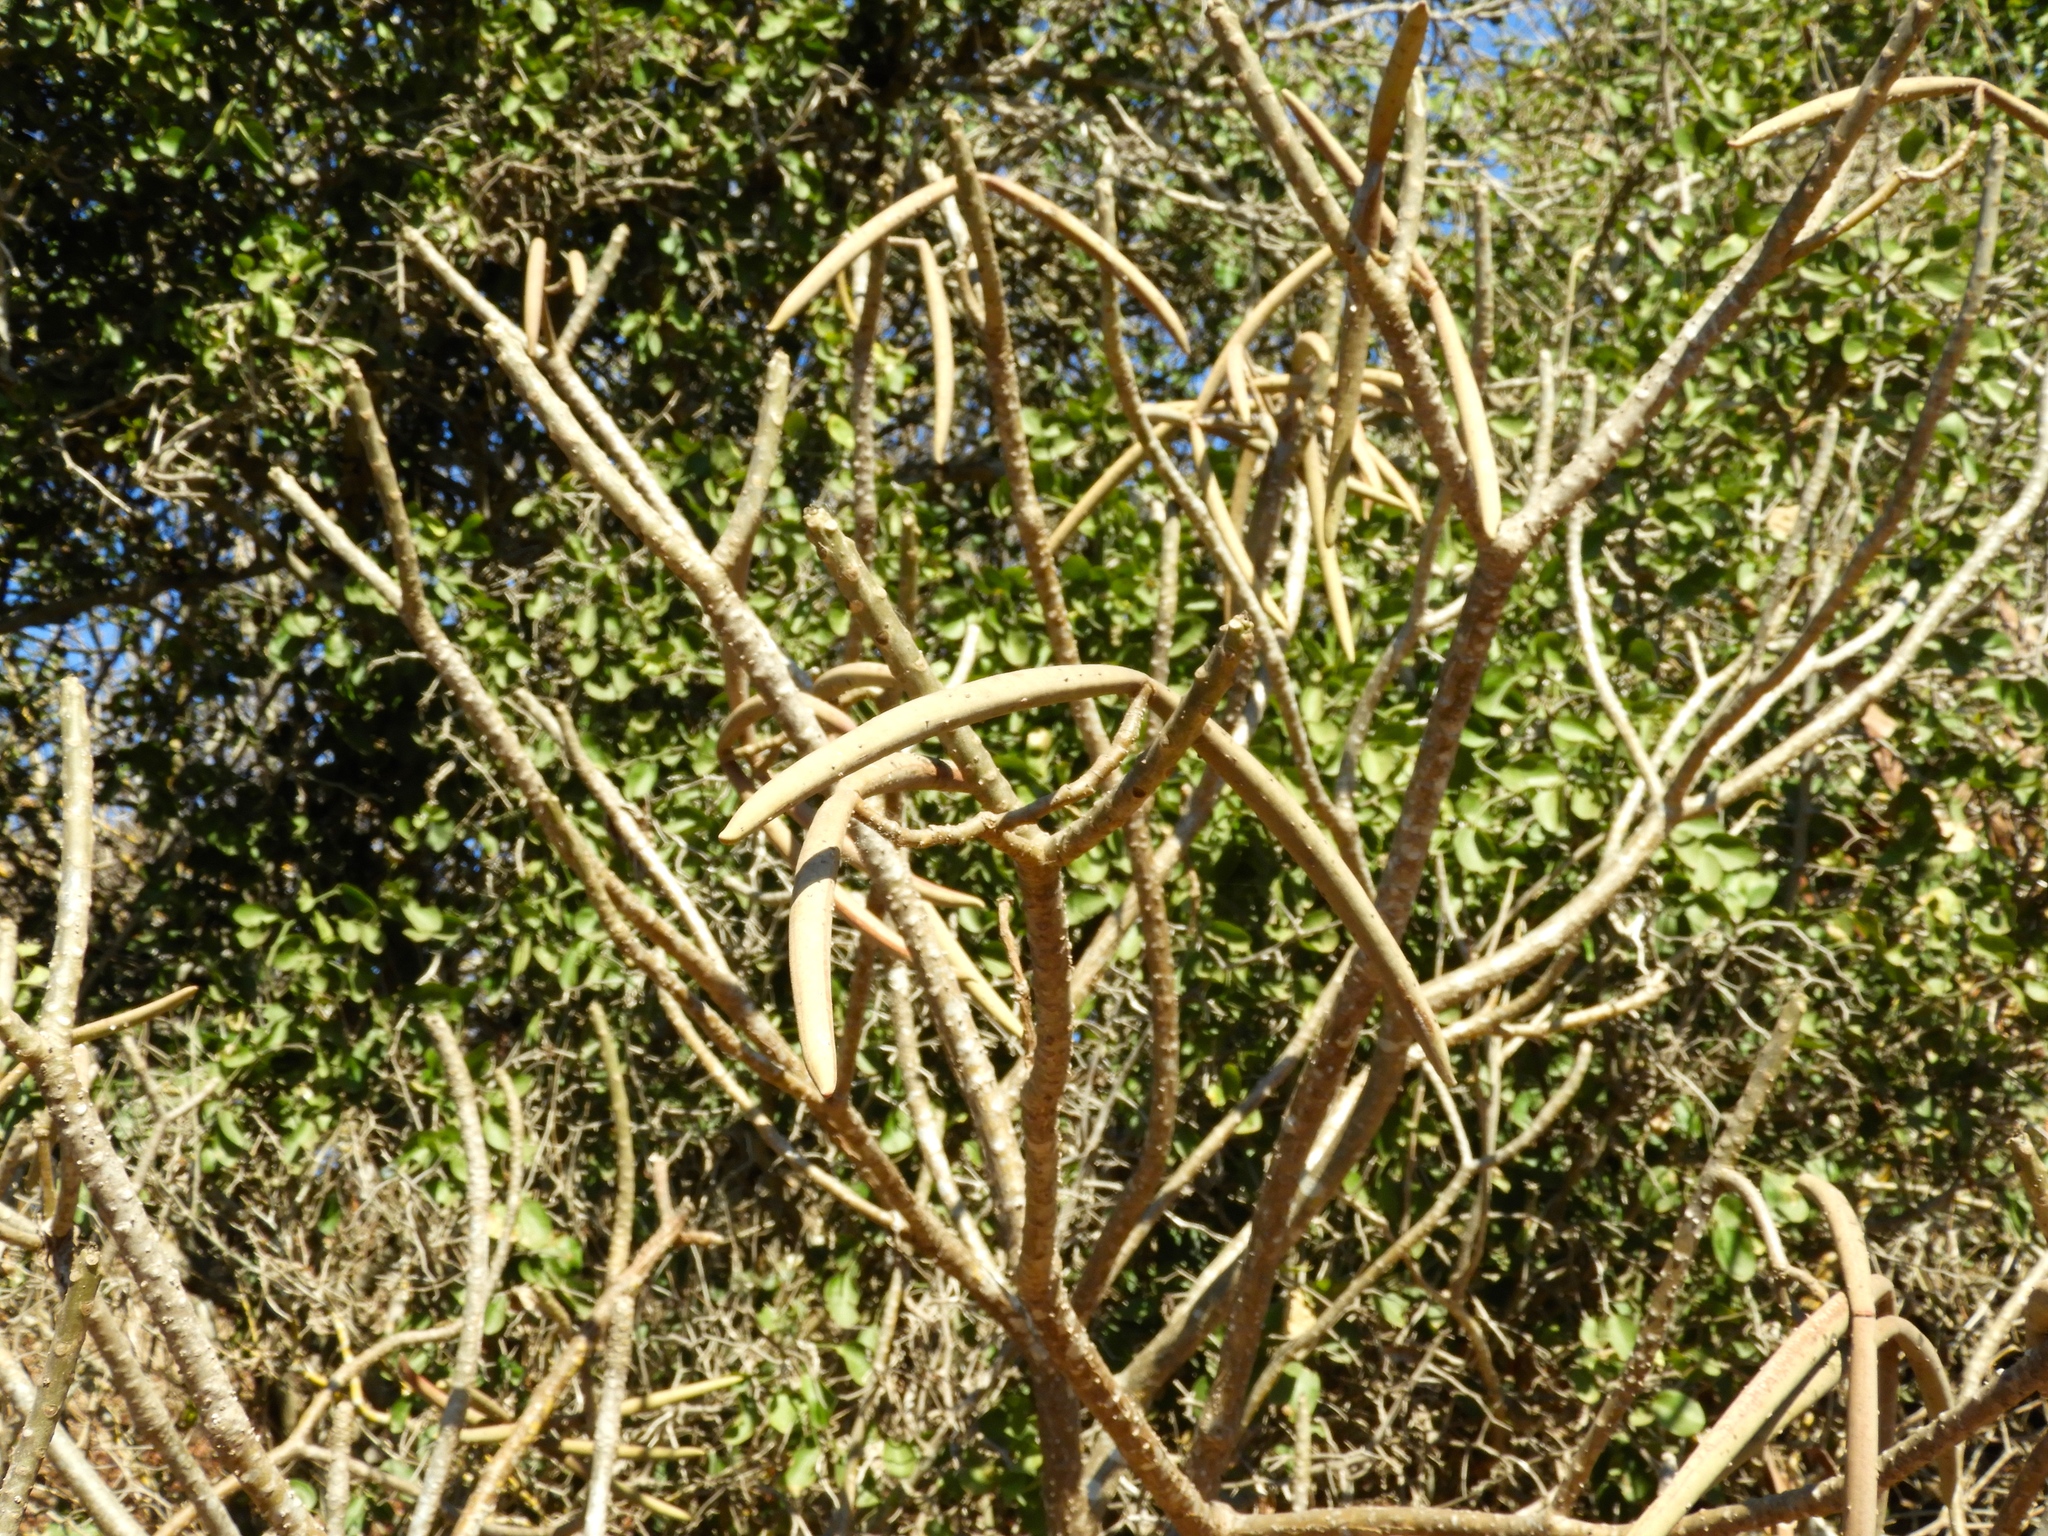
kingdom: Plantae
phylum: Tracheophyta
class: Magnoliopsida
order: Gentianales
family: Apocynaceae
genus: Plumeria
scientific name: Plumeria rubra
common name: Pagoda-tree
